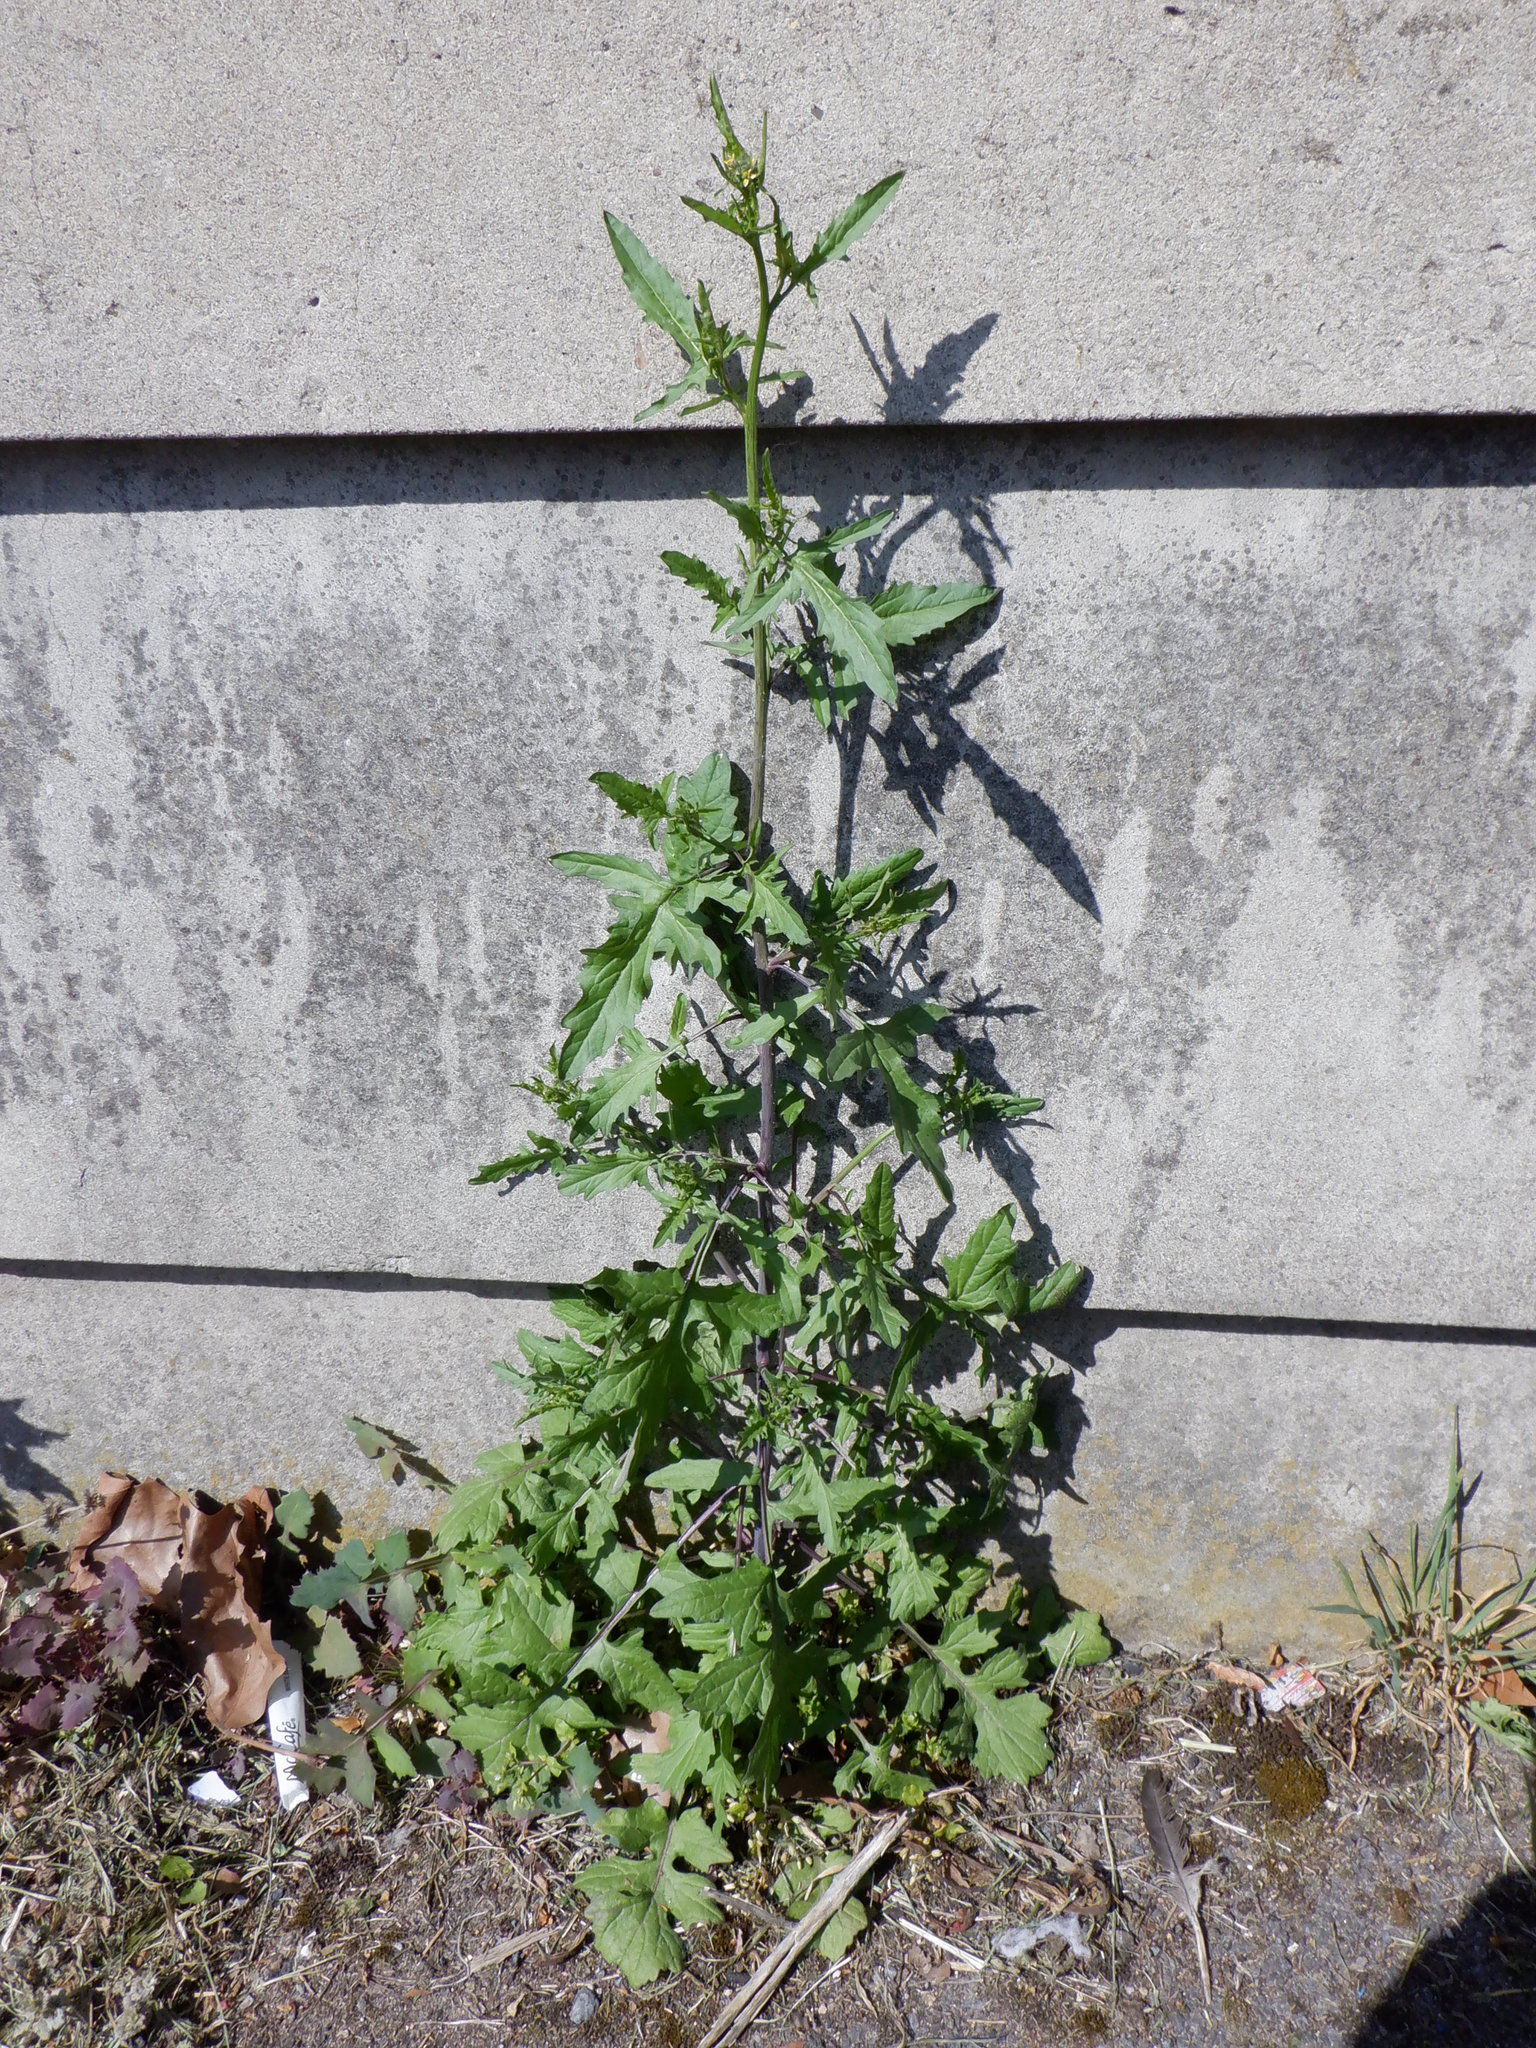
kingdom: Plantae
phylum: Tracheophyta
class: Magnoliopsida
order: Brassicales
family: Brassicaceae
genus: Sisymbrium
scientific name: Sisymbrium officinale
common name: Hedge mustard
